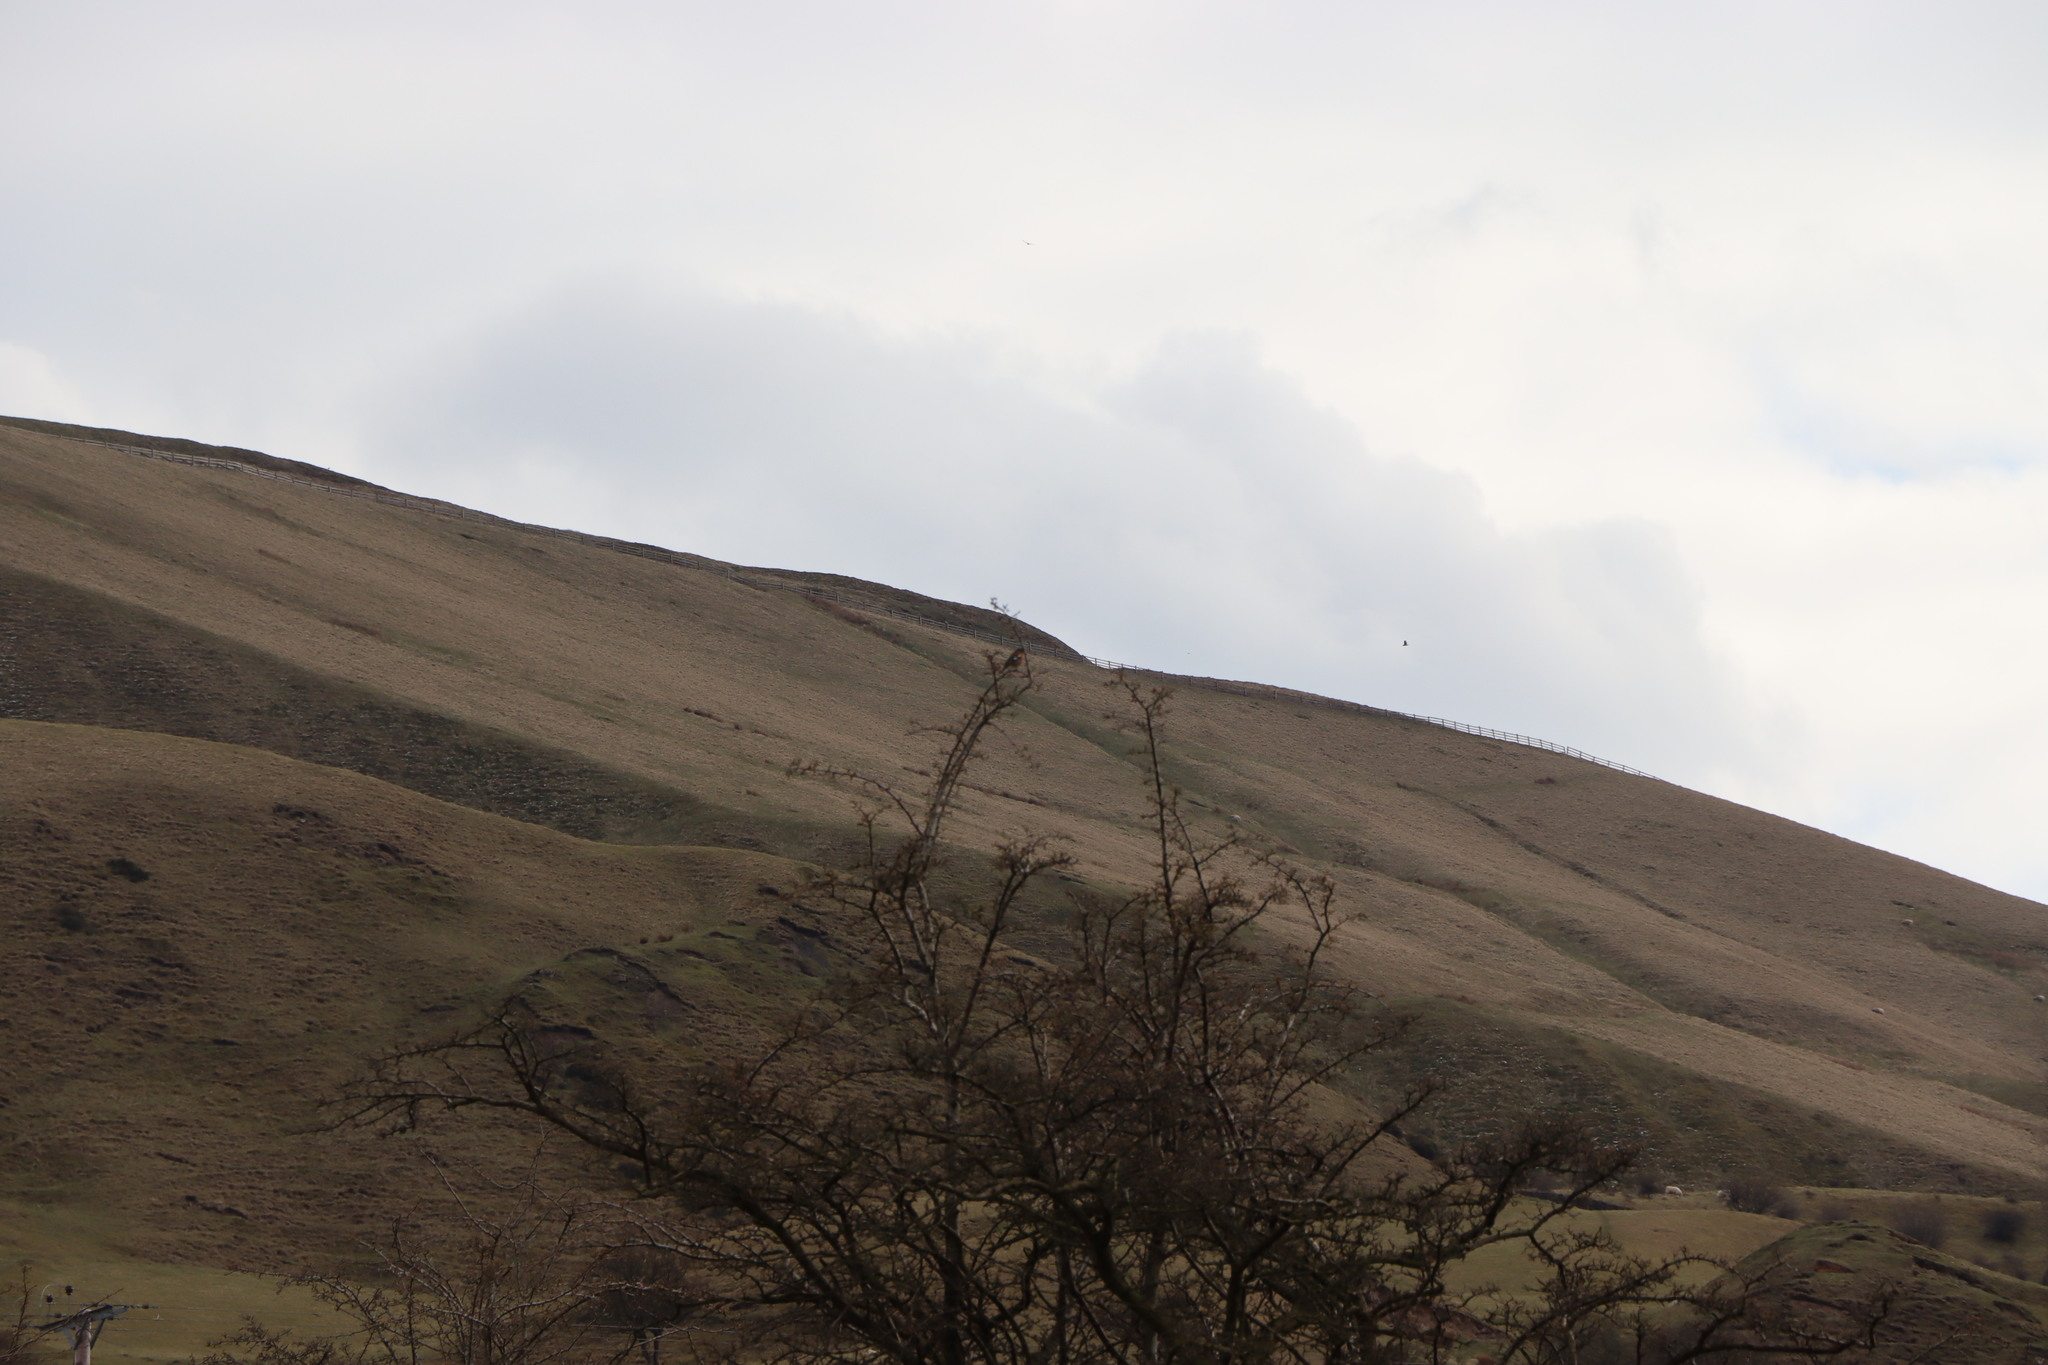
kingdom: Animalia
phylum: Chordata
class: Aves
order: Passeriformes
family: Fringillidae
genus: Fringilla
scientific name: Fringilla coelebs
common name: Common chaffinch
